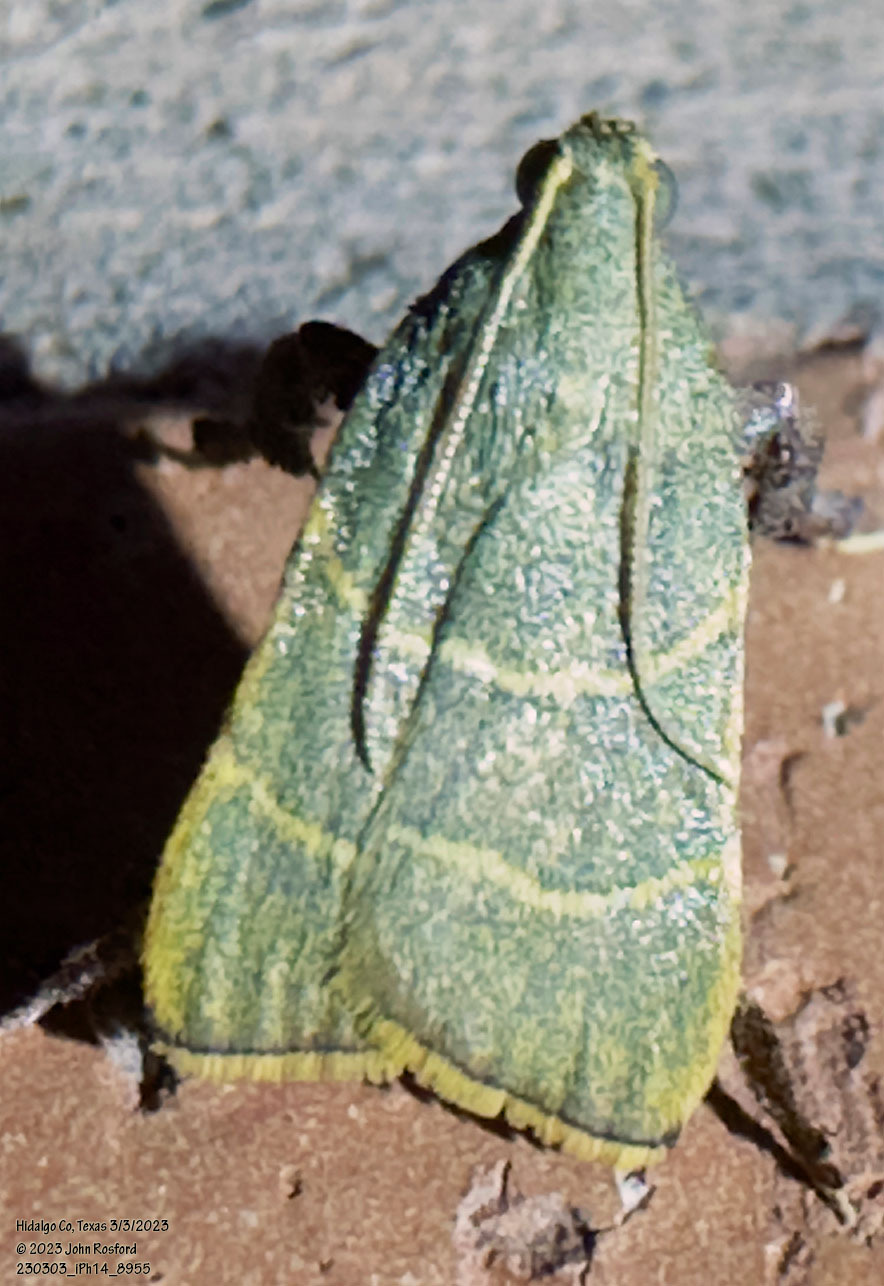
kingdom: Animalia
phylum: Arthropoda
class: Insecta
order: Lepidoptera
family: Pyralidae
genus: Parachma
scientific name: Parachma ochracealis
